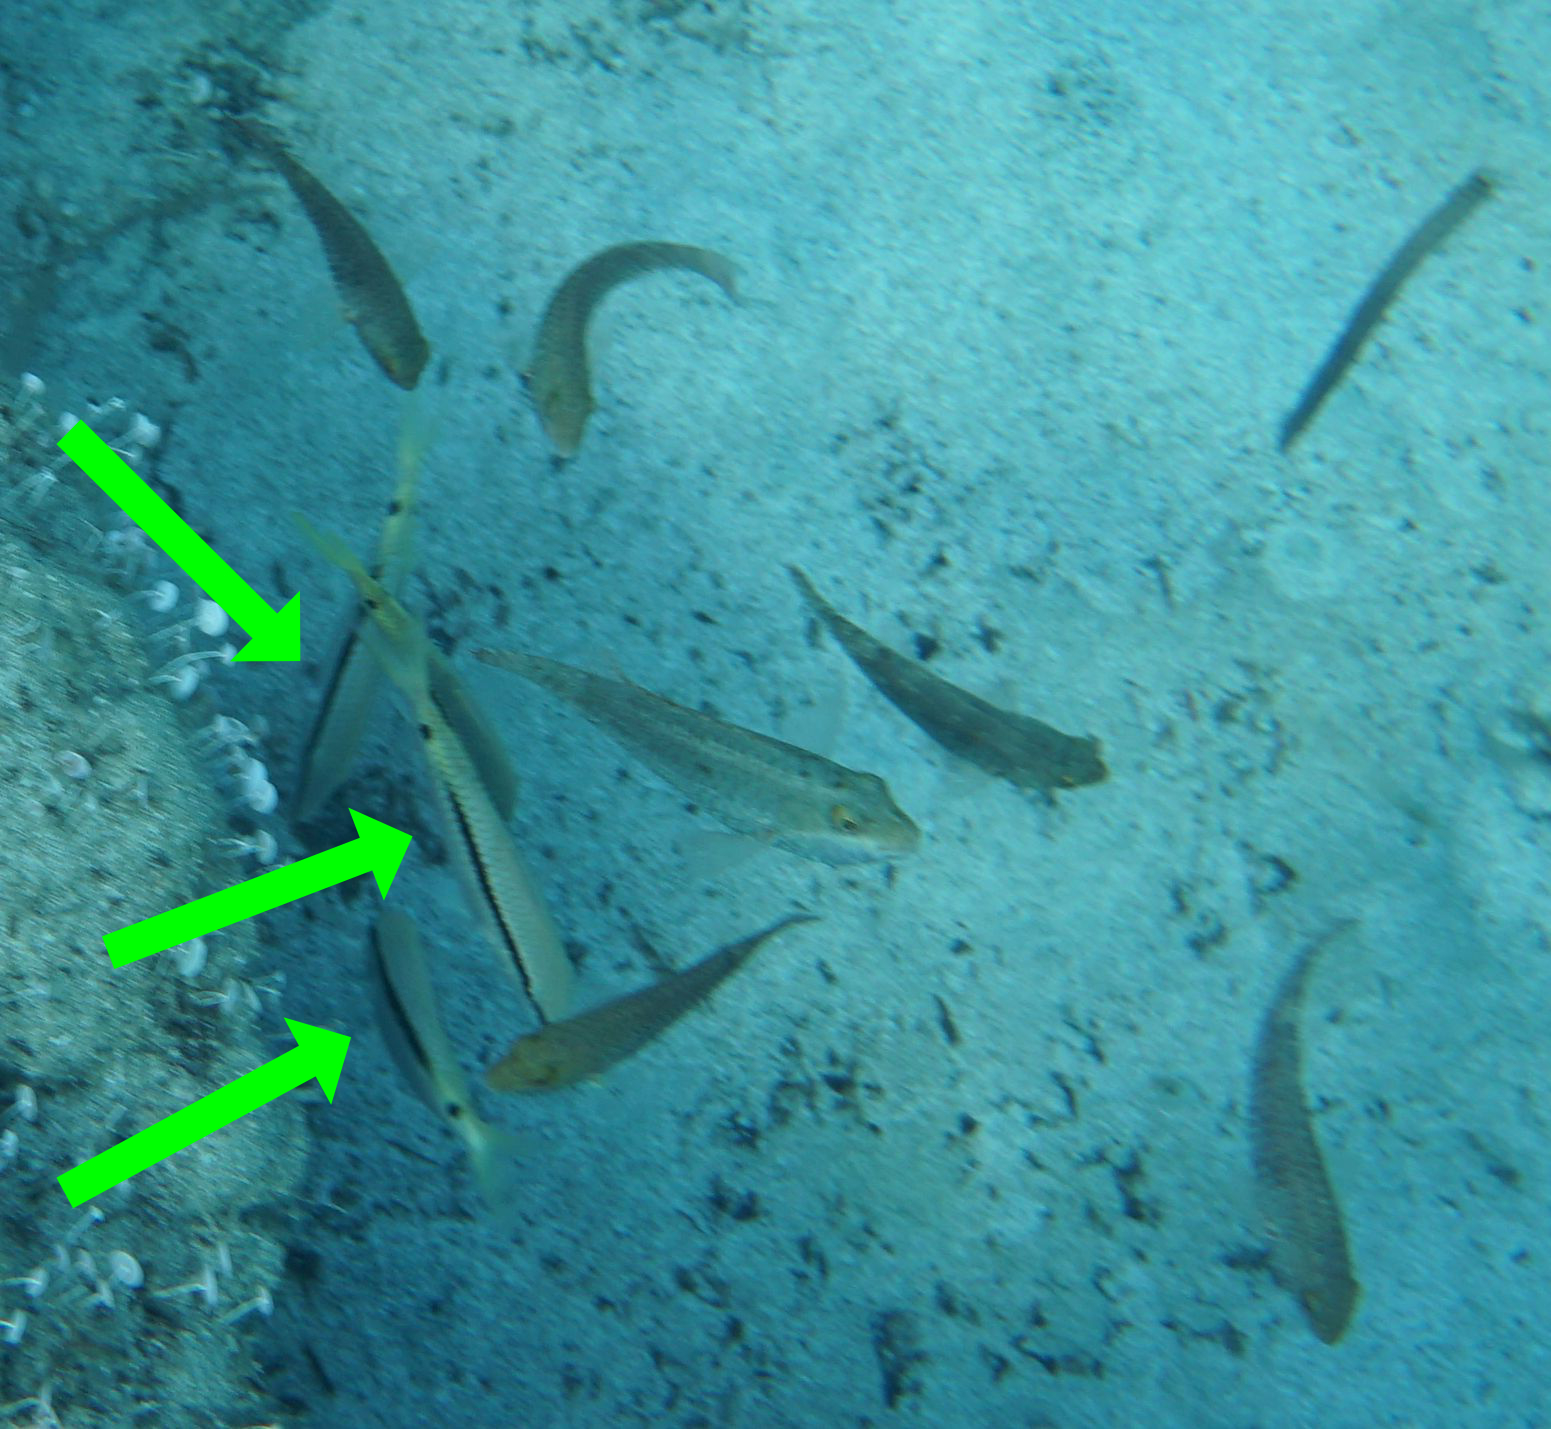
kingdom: Animalia
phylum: Chordata
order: Perciformes
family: Mullidae
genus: Parupeneus
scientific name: Parupeneus forsskali
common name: Red sea goatfish
